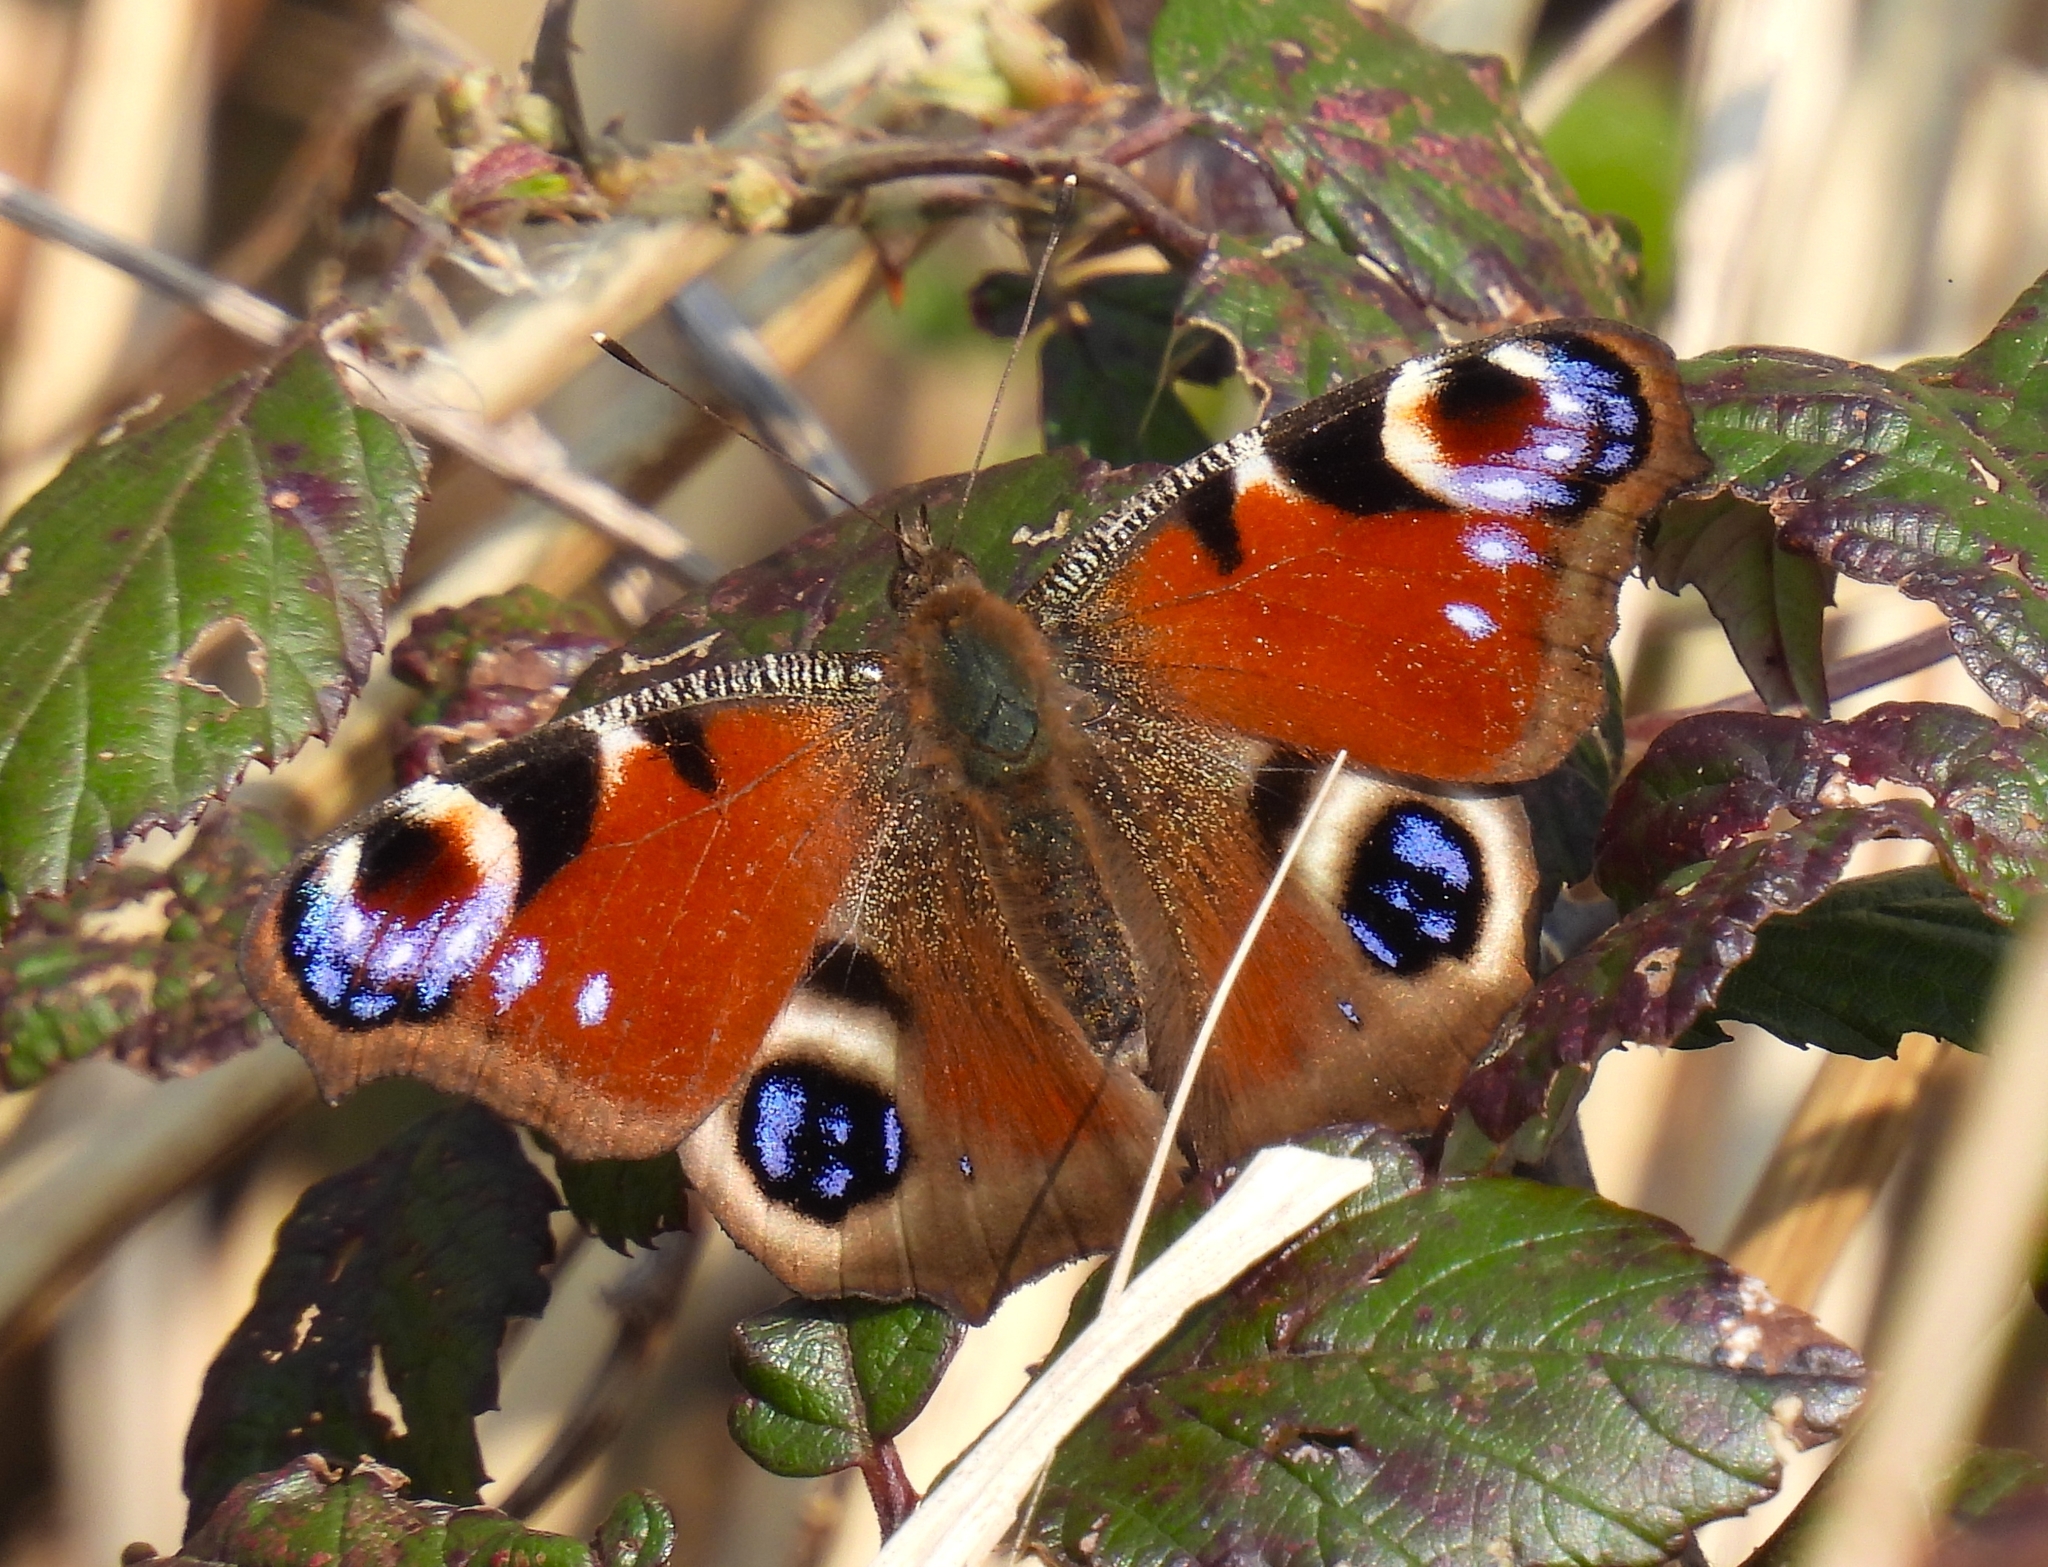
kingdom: Animalia
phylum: Arthropoda
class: Insecta
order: Lepidoptera
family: Nymphalidae
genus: Aglais
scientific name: Aglais io
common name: Peacock
